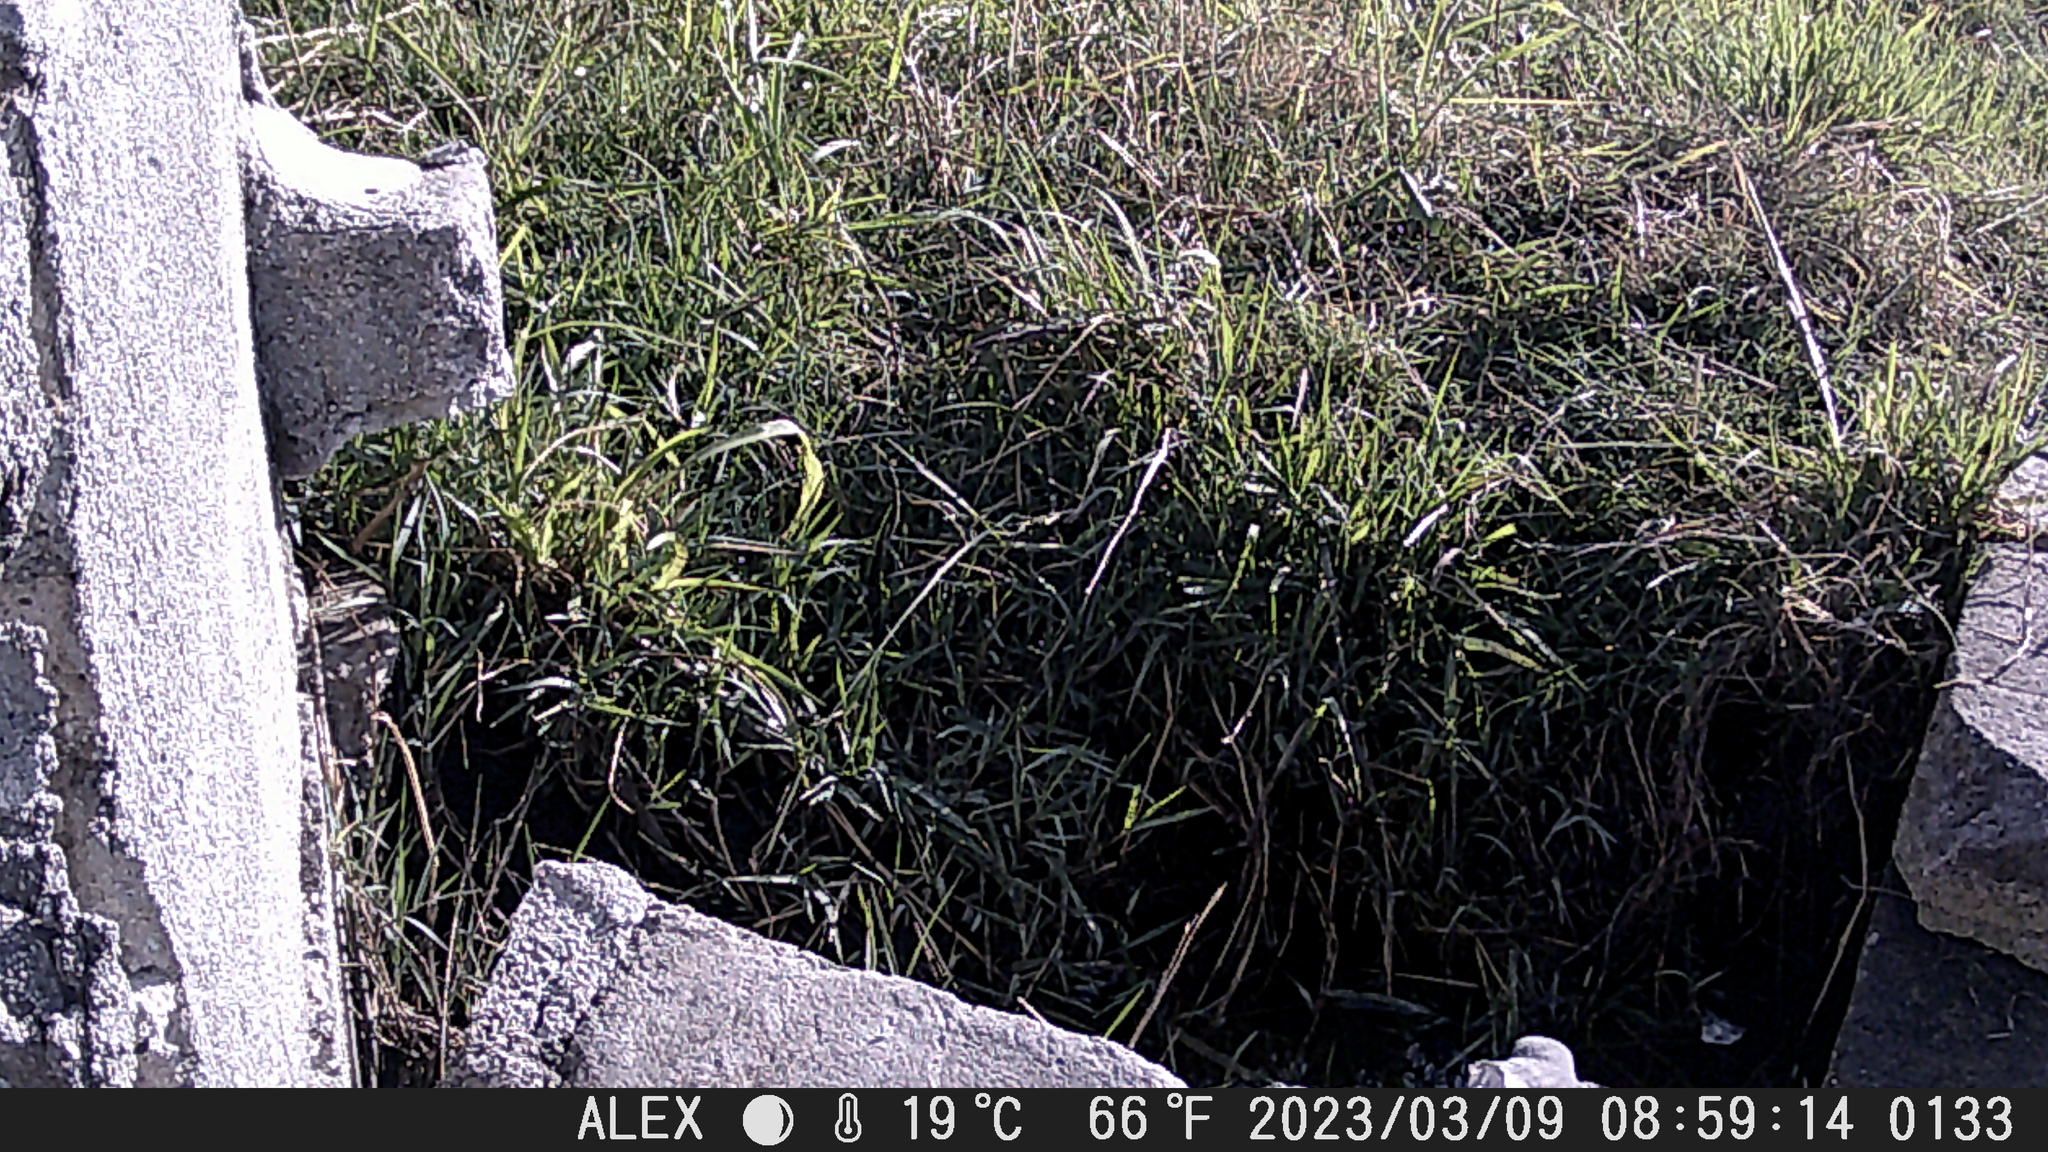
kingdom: Animalia
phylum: Chordata
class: Aves
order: Passeriformes
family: Laniidae
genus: Lanius
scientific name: Lanius ludovicianus
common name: Loggerhead shrike
